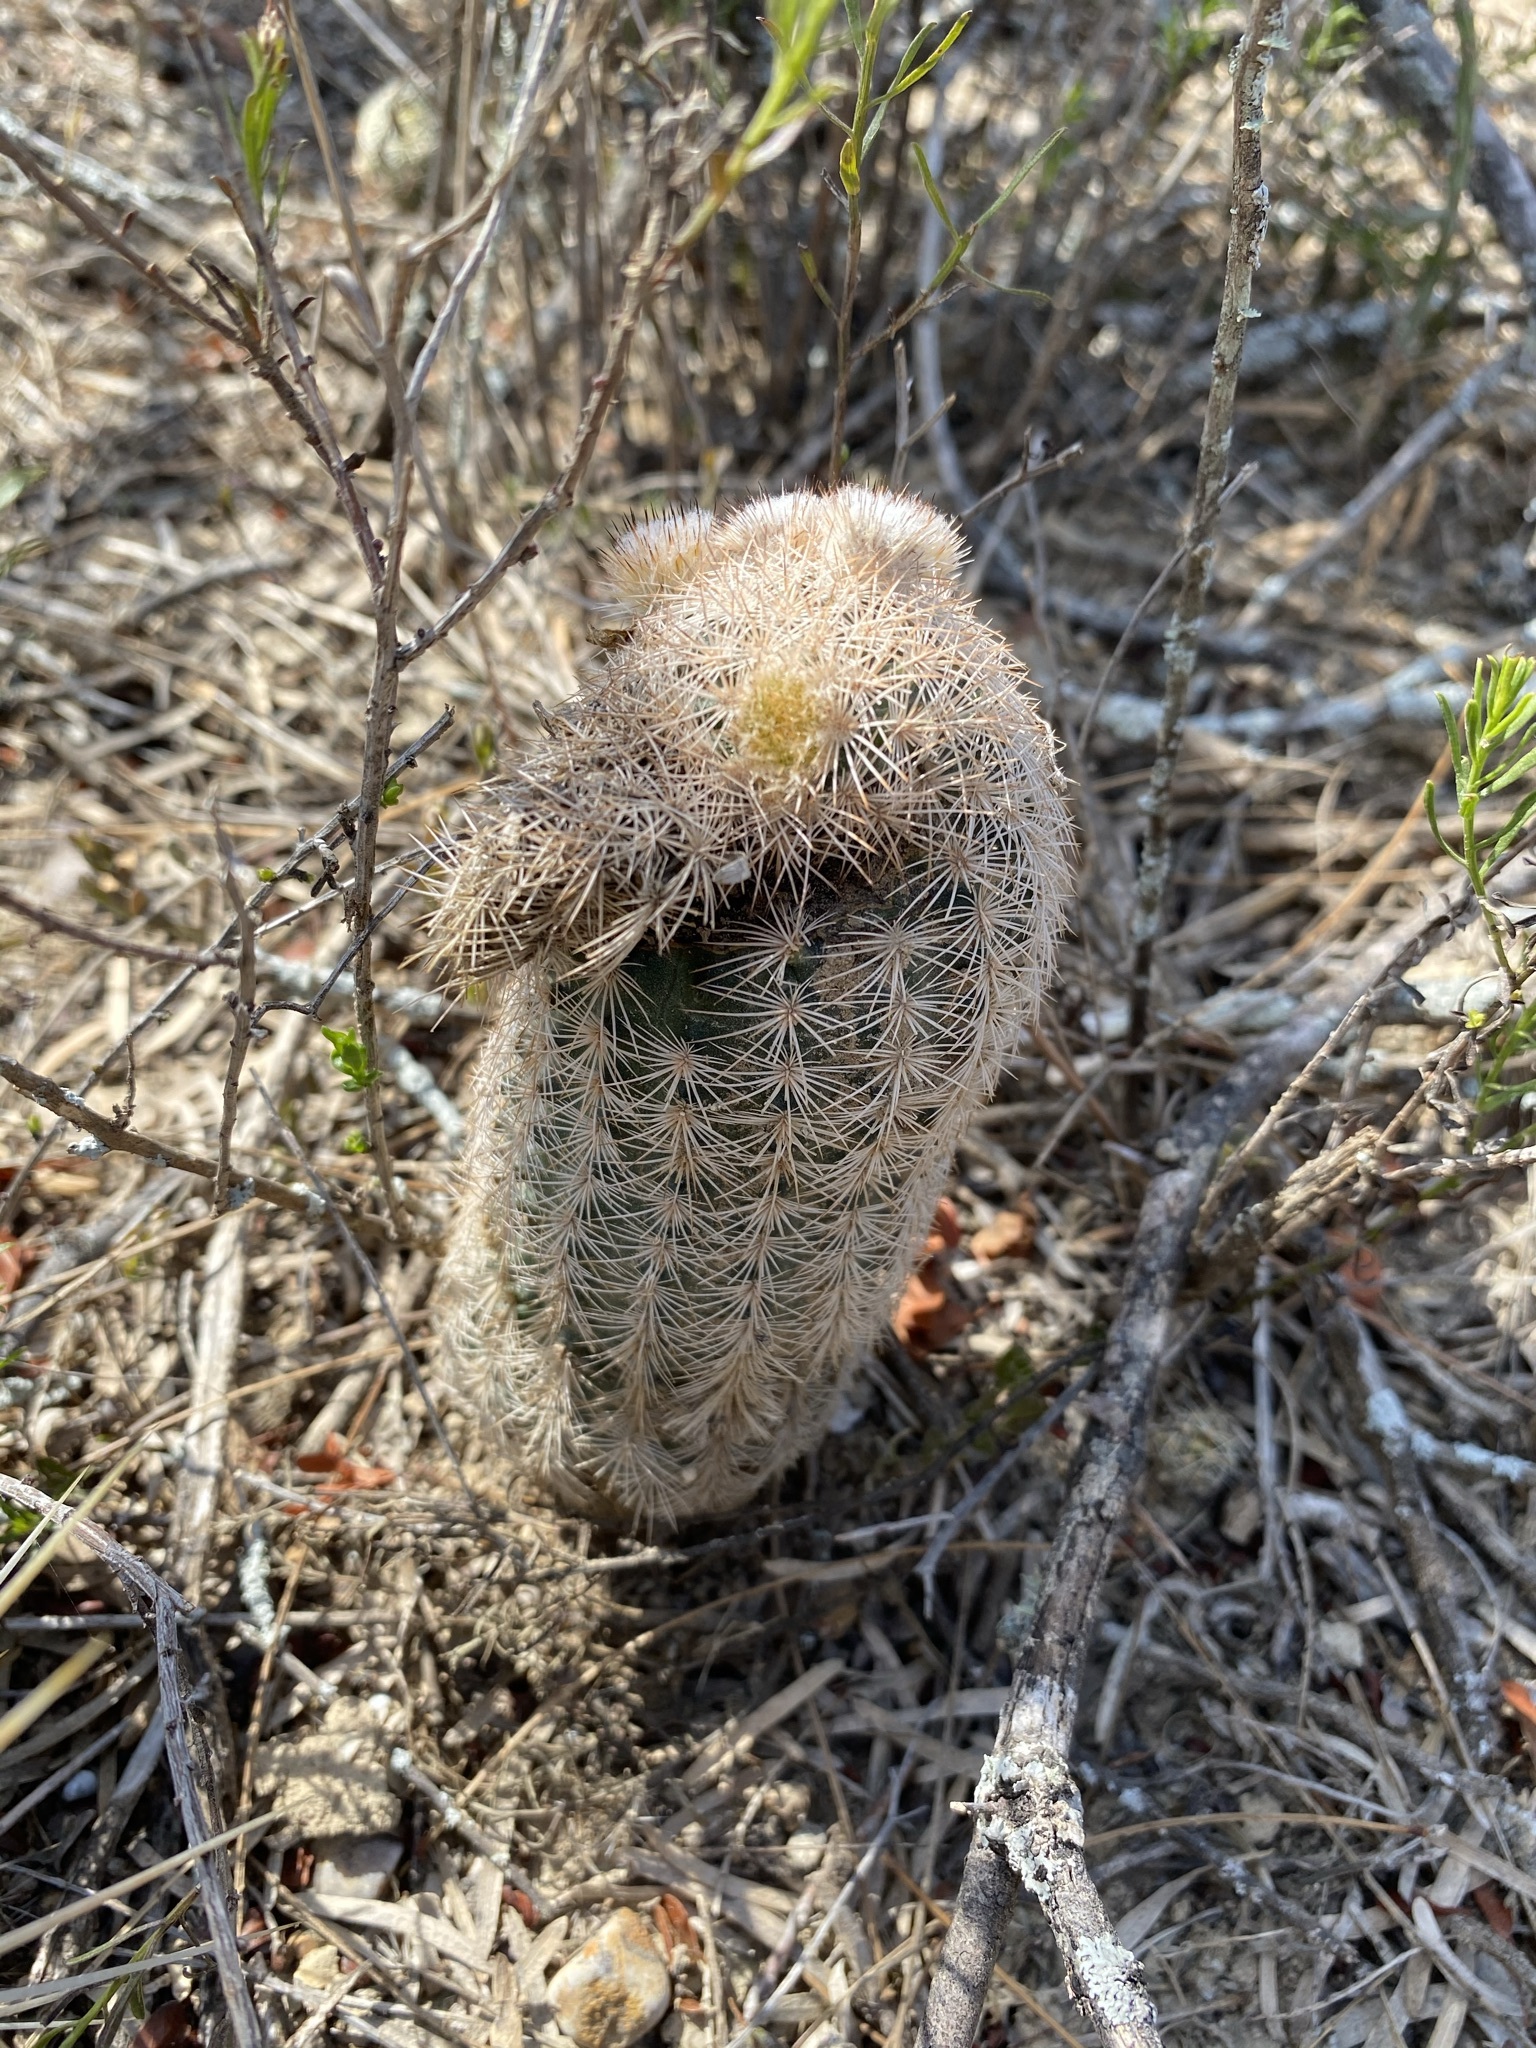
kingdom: Plantae
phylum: Tracheophyta
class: Magnoliopsida
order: Caryophyllales
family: Cactaceae
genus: Echinocereus
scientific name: Echinocereus reichenbachii
